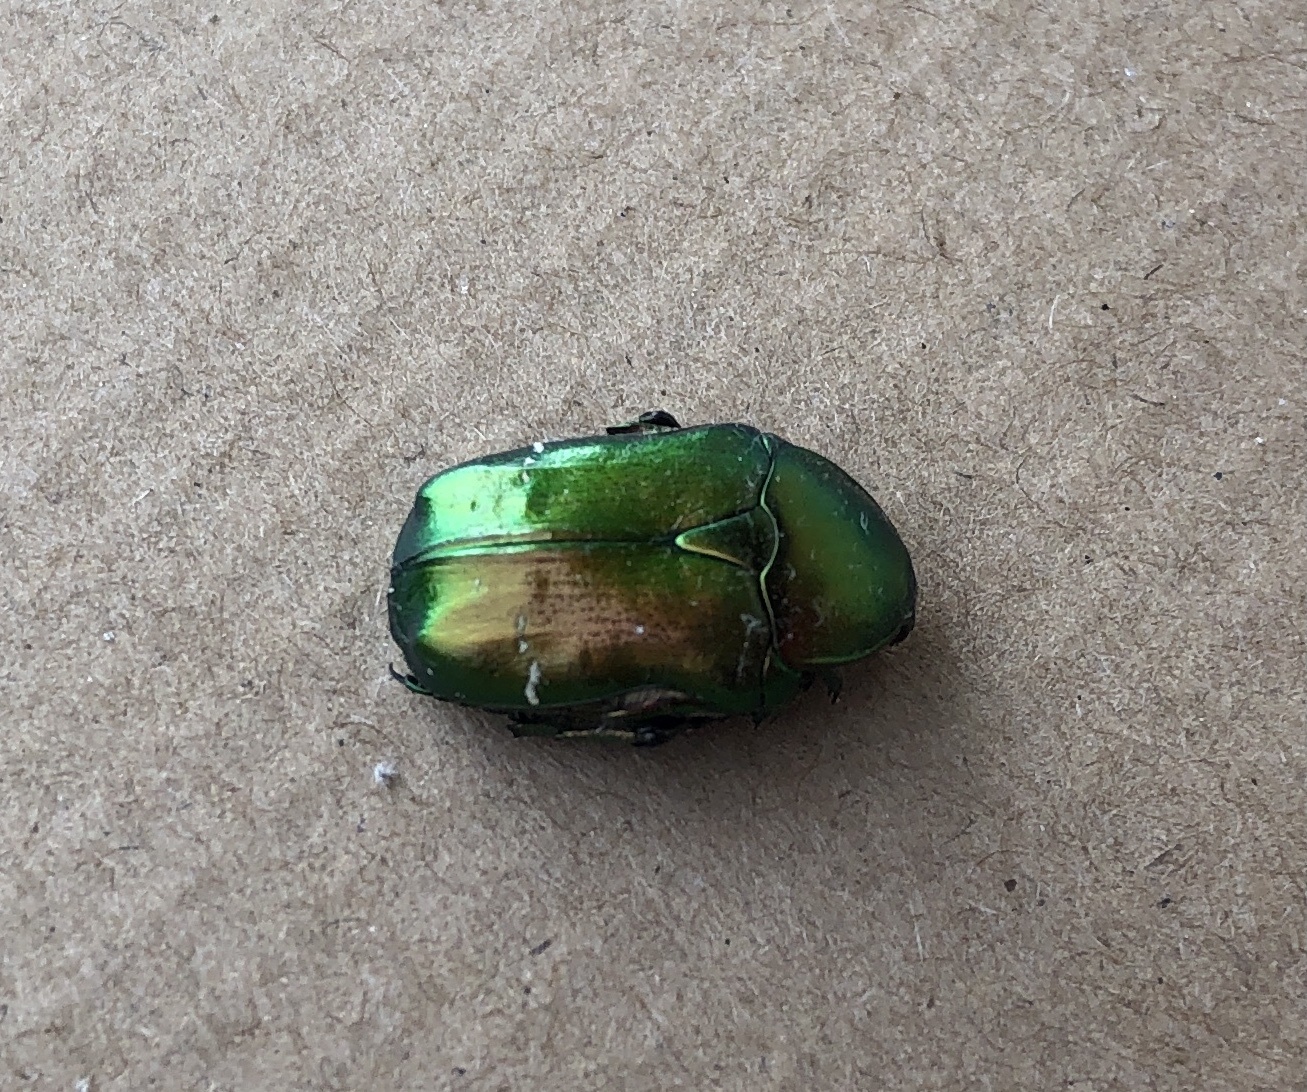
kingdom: Animalia
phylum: Arthropoda
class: Insecta
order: Coleoptera
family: Scarabaeidae
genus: Cetonia
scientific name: Cetonia aurata
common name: Rose chafer
